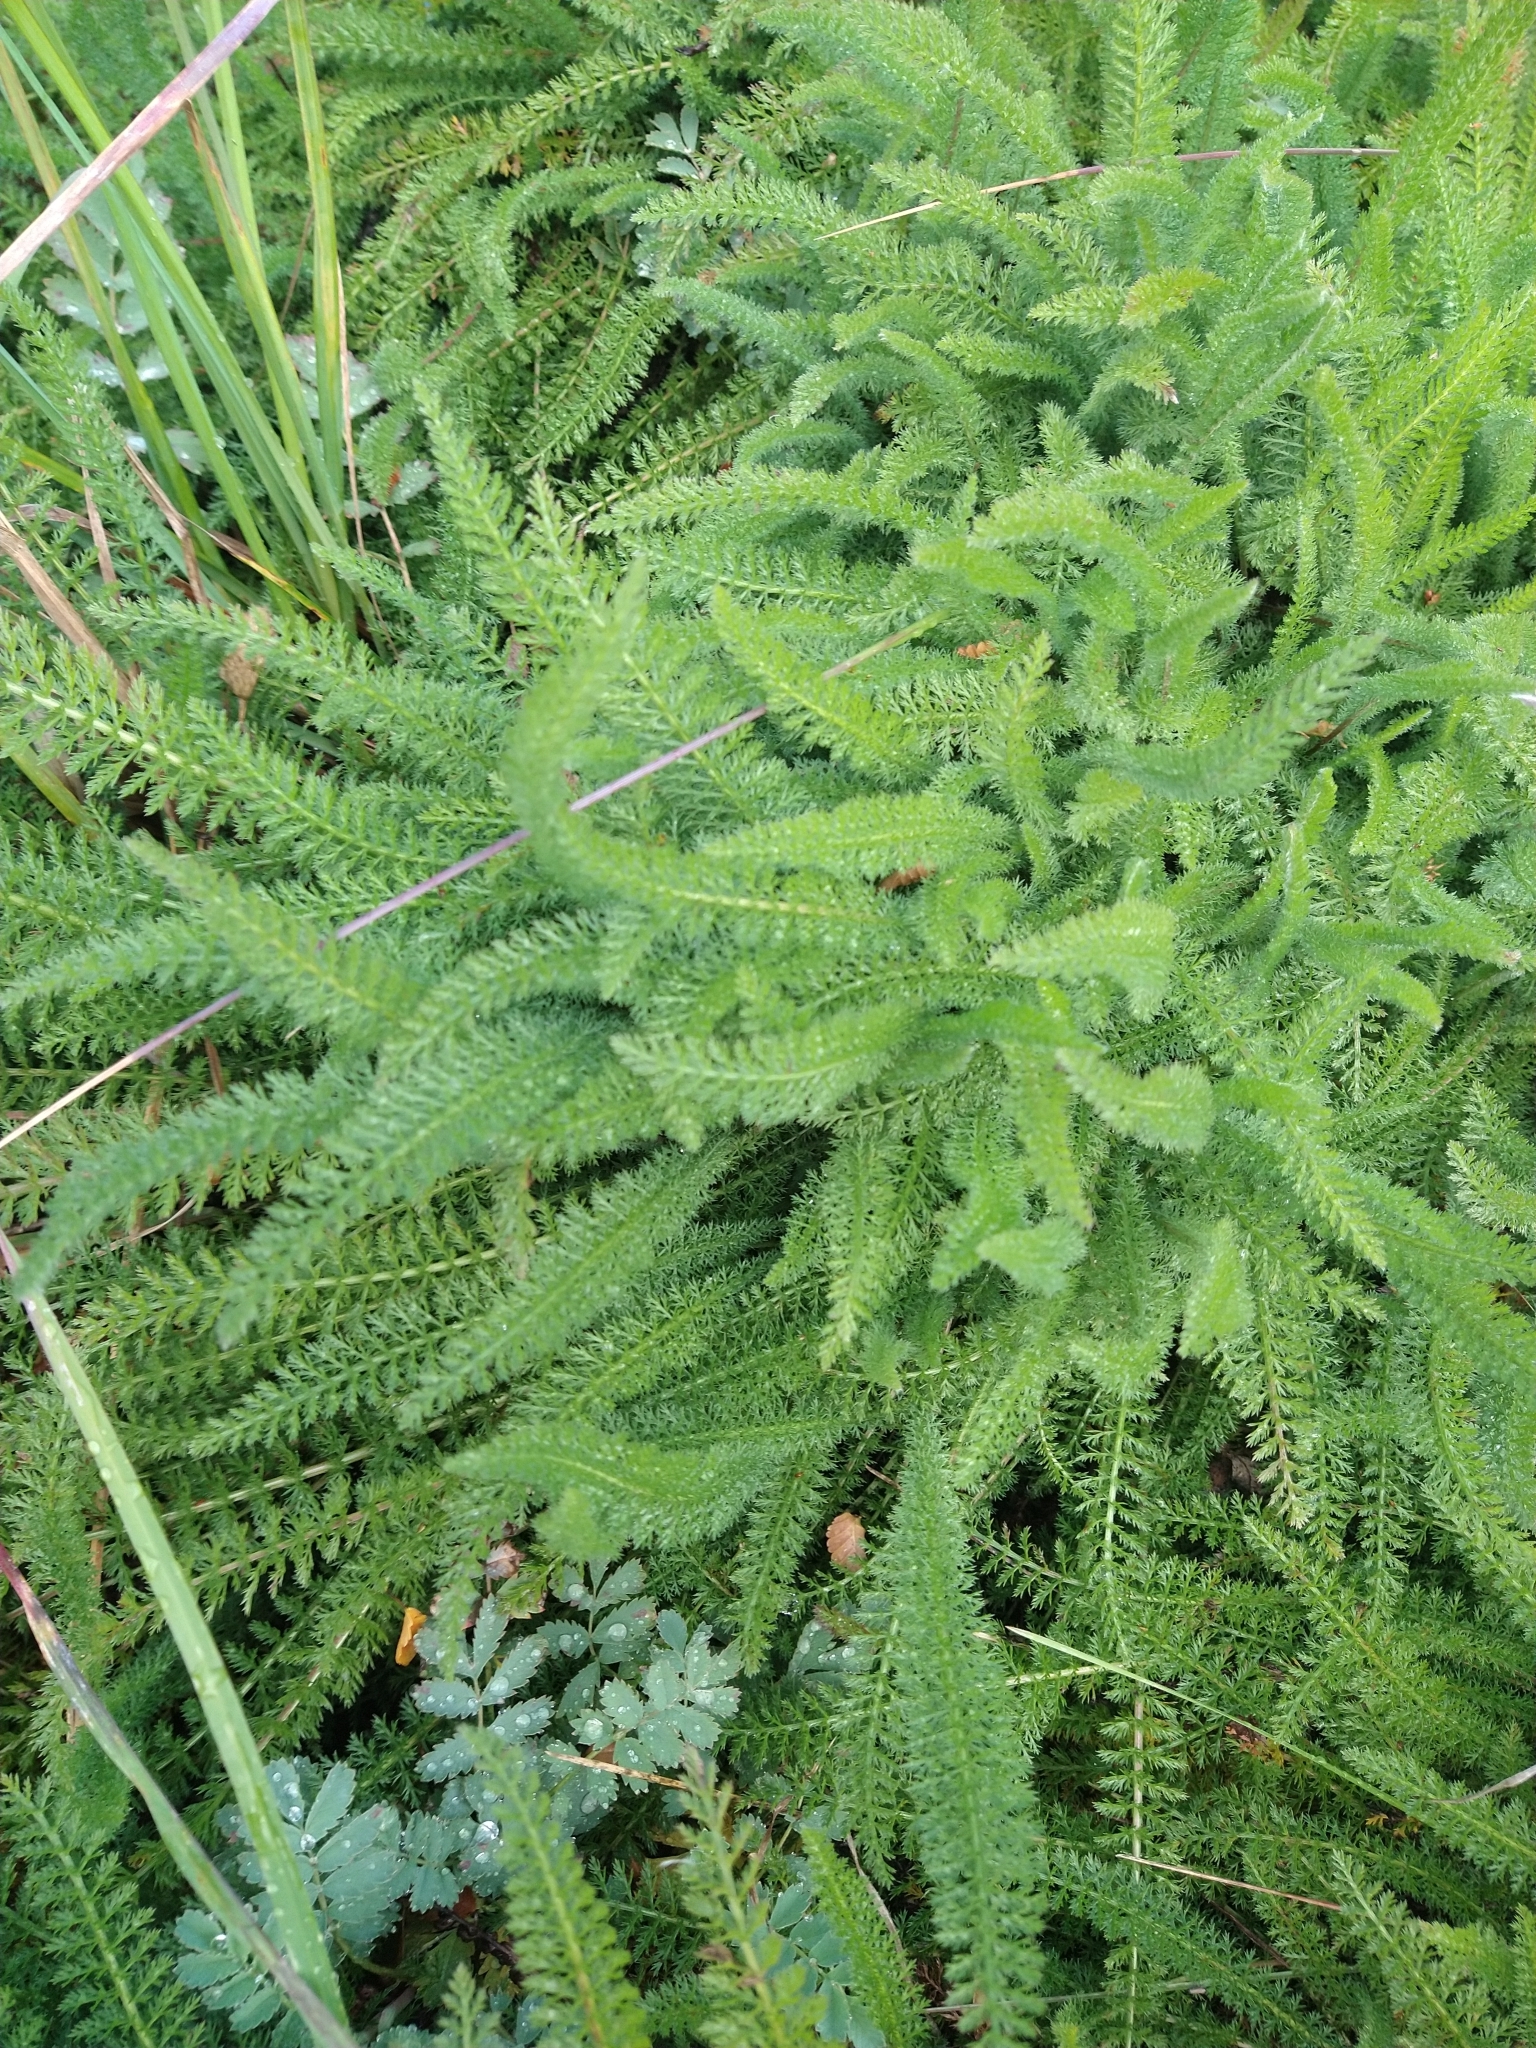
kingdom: Plantae
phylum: Tracheophyta
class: Magnoliopsida
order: Asterales
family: Asteraceae
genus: Achillea
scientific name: Achillea millefolium
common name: Yarrow
